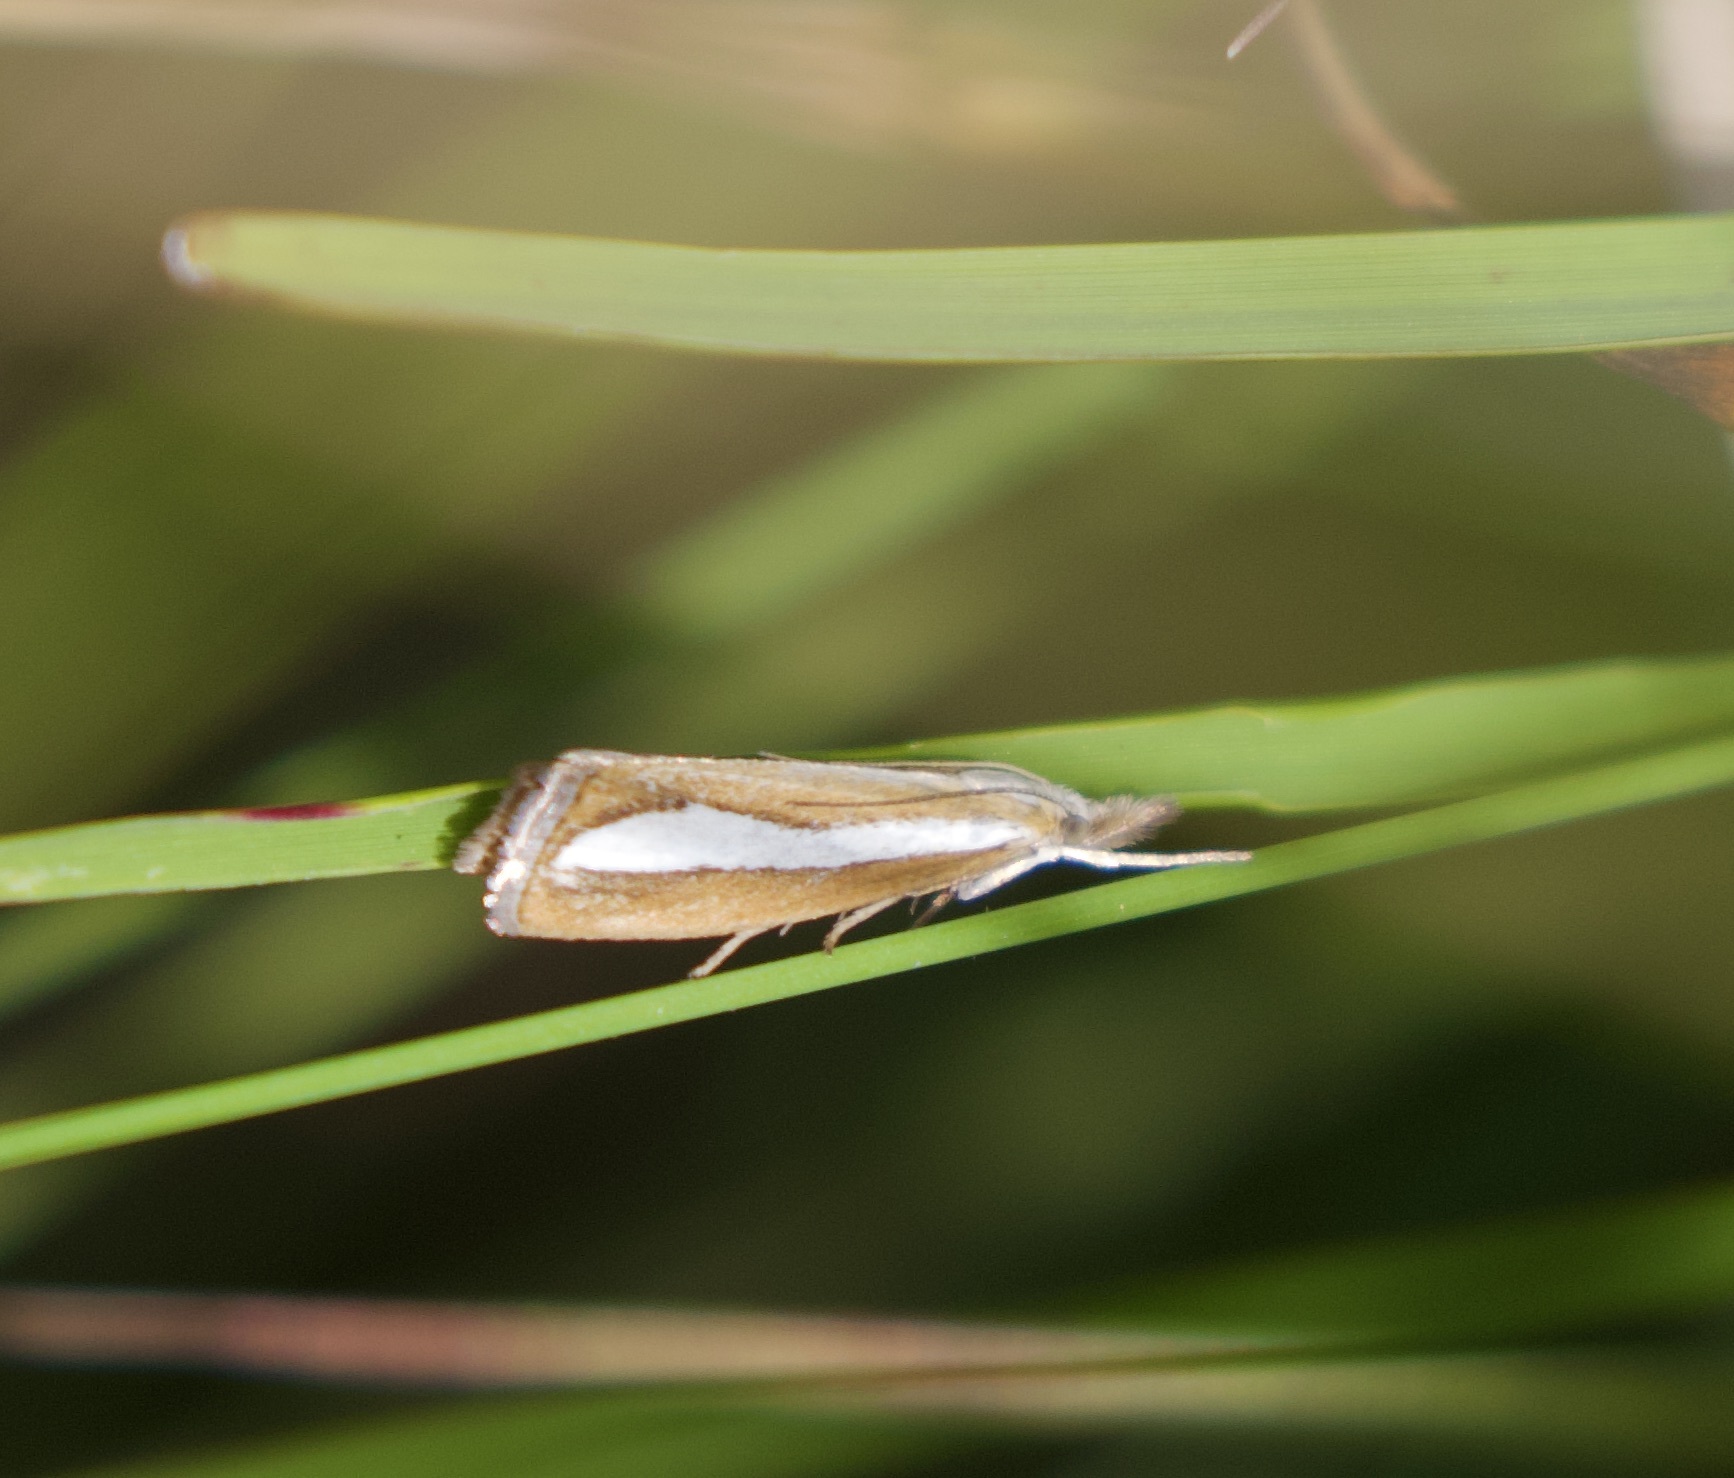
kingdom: Animalia
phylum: Arthropoda
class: Insecta
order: Lepidoptera
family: Crambidae
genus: Catoptria
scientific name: Catoptria margaritellus
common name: Pearl-band grass veneer
